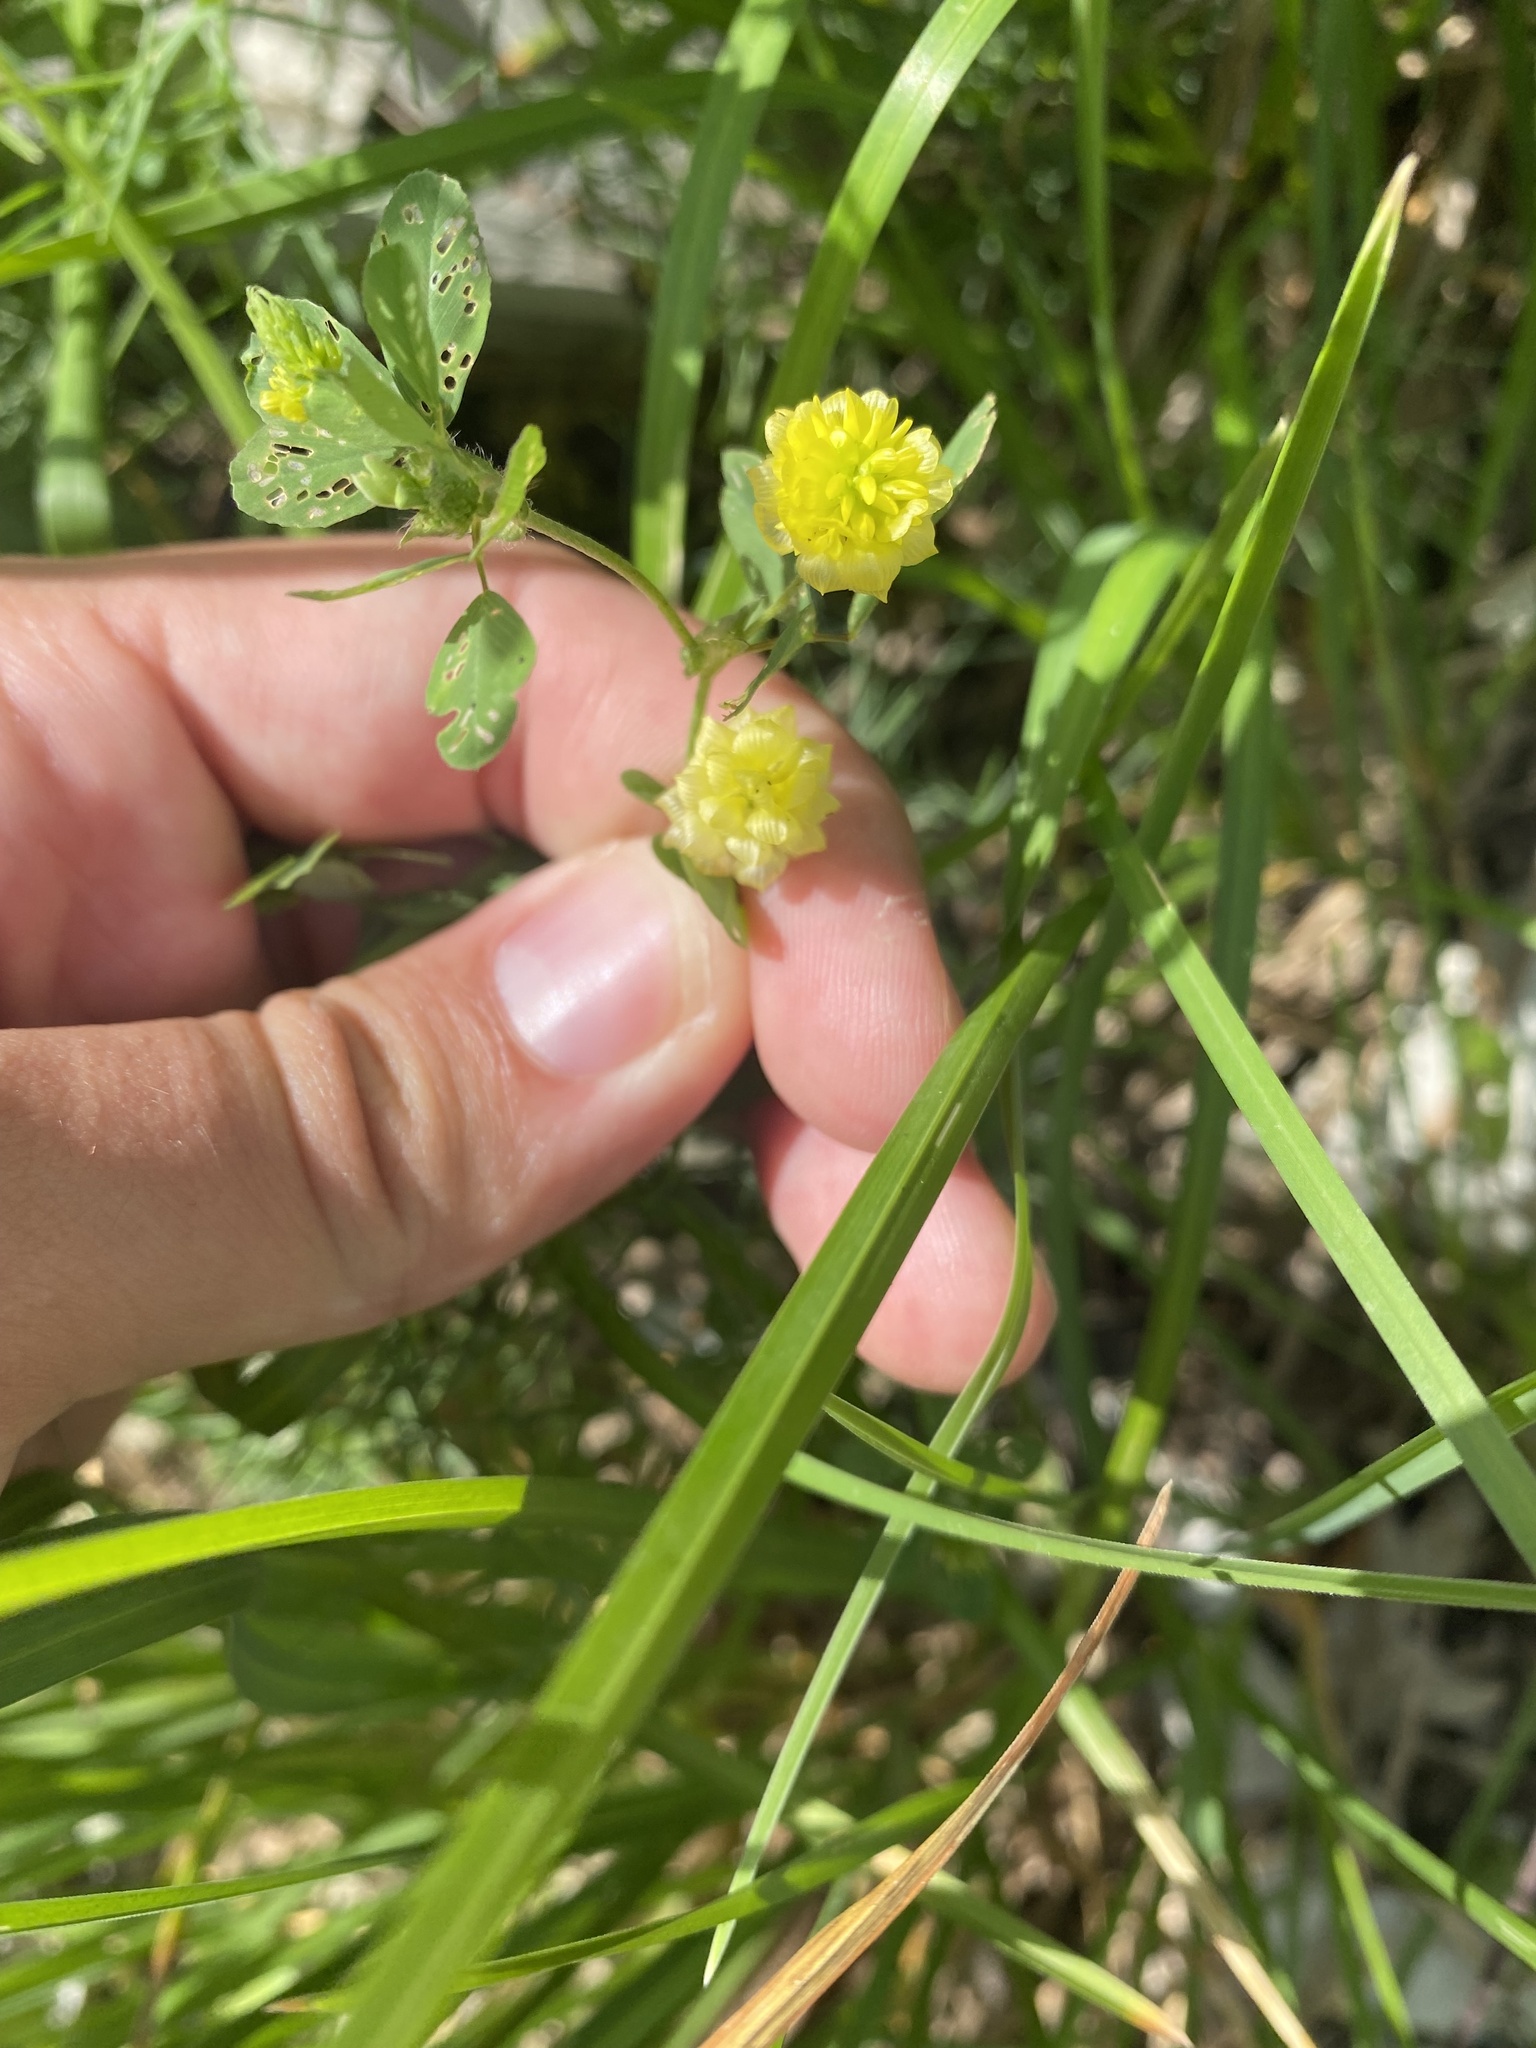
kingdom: Plantae
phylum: Tracheophyta
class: Magnoliopsida
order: Fabales
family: Fabaceae
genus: Trifolium
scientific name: Trifolium campestre
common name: Field clover
